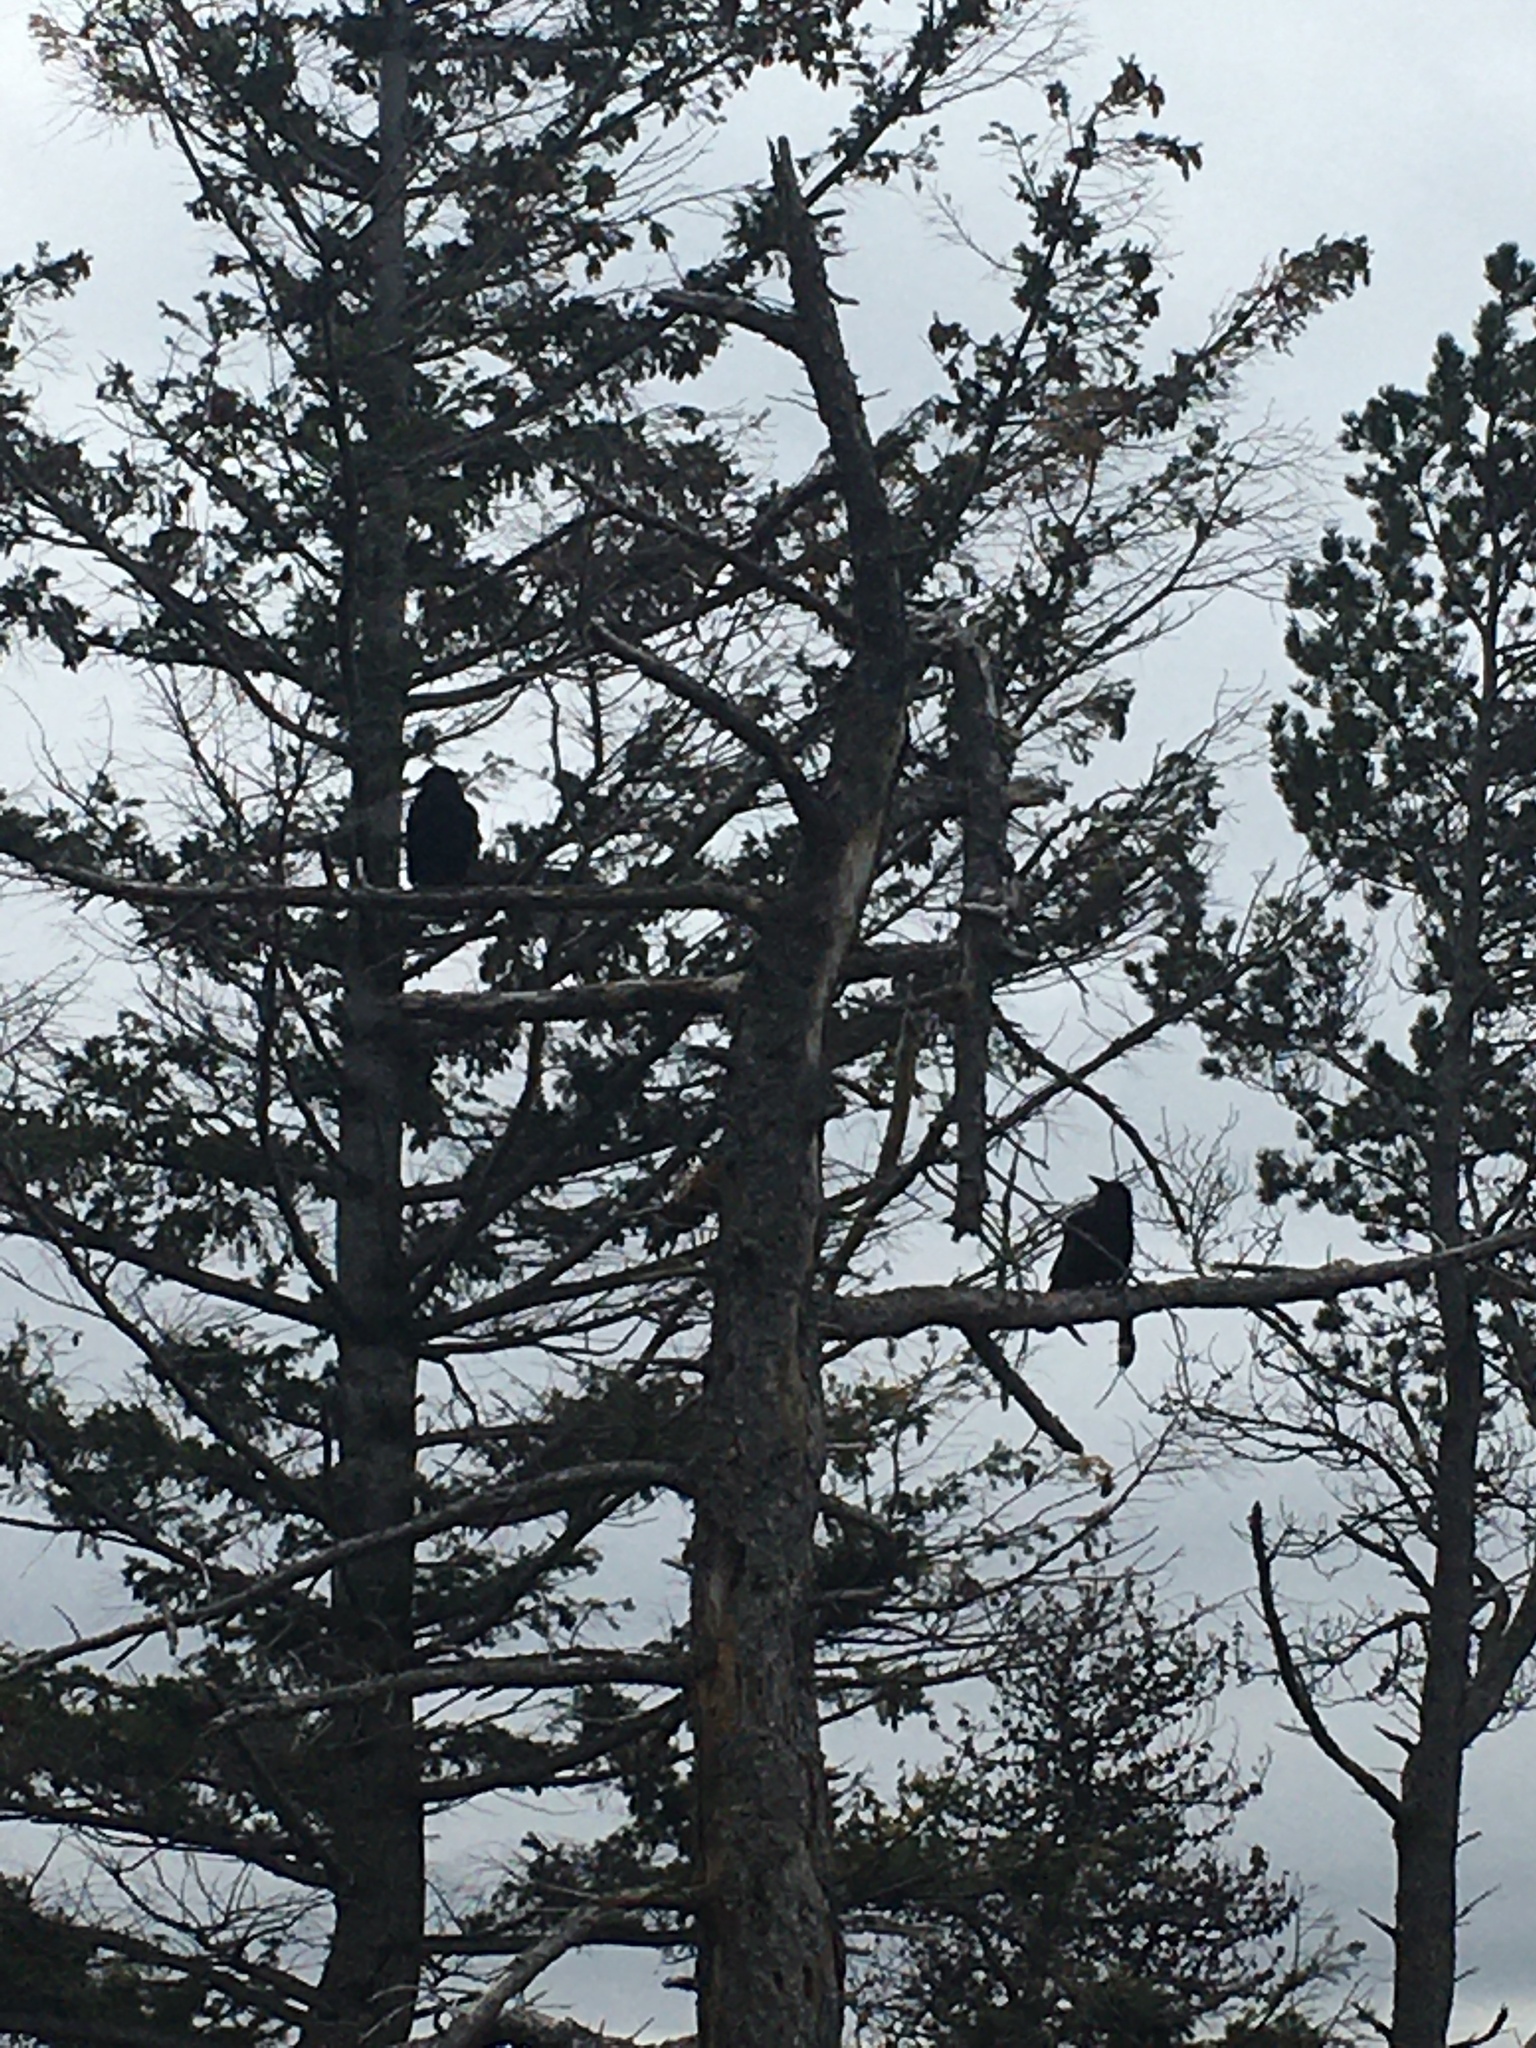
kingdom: Animalia
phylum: Chordata
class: Aves
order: Passeriformes
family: Corvidae
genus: Corvus
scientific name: Corvus brachyrhynchos
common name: American crow
